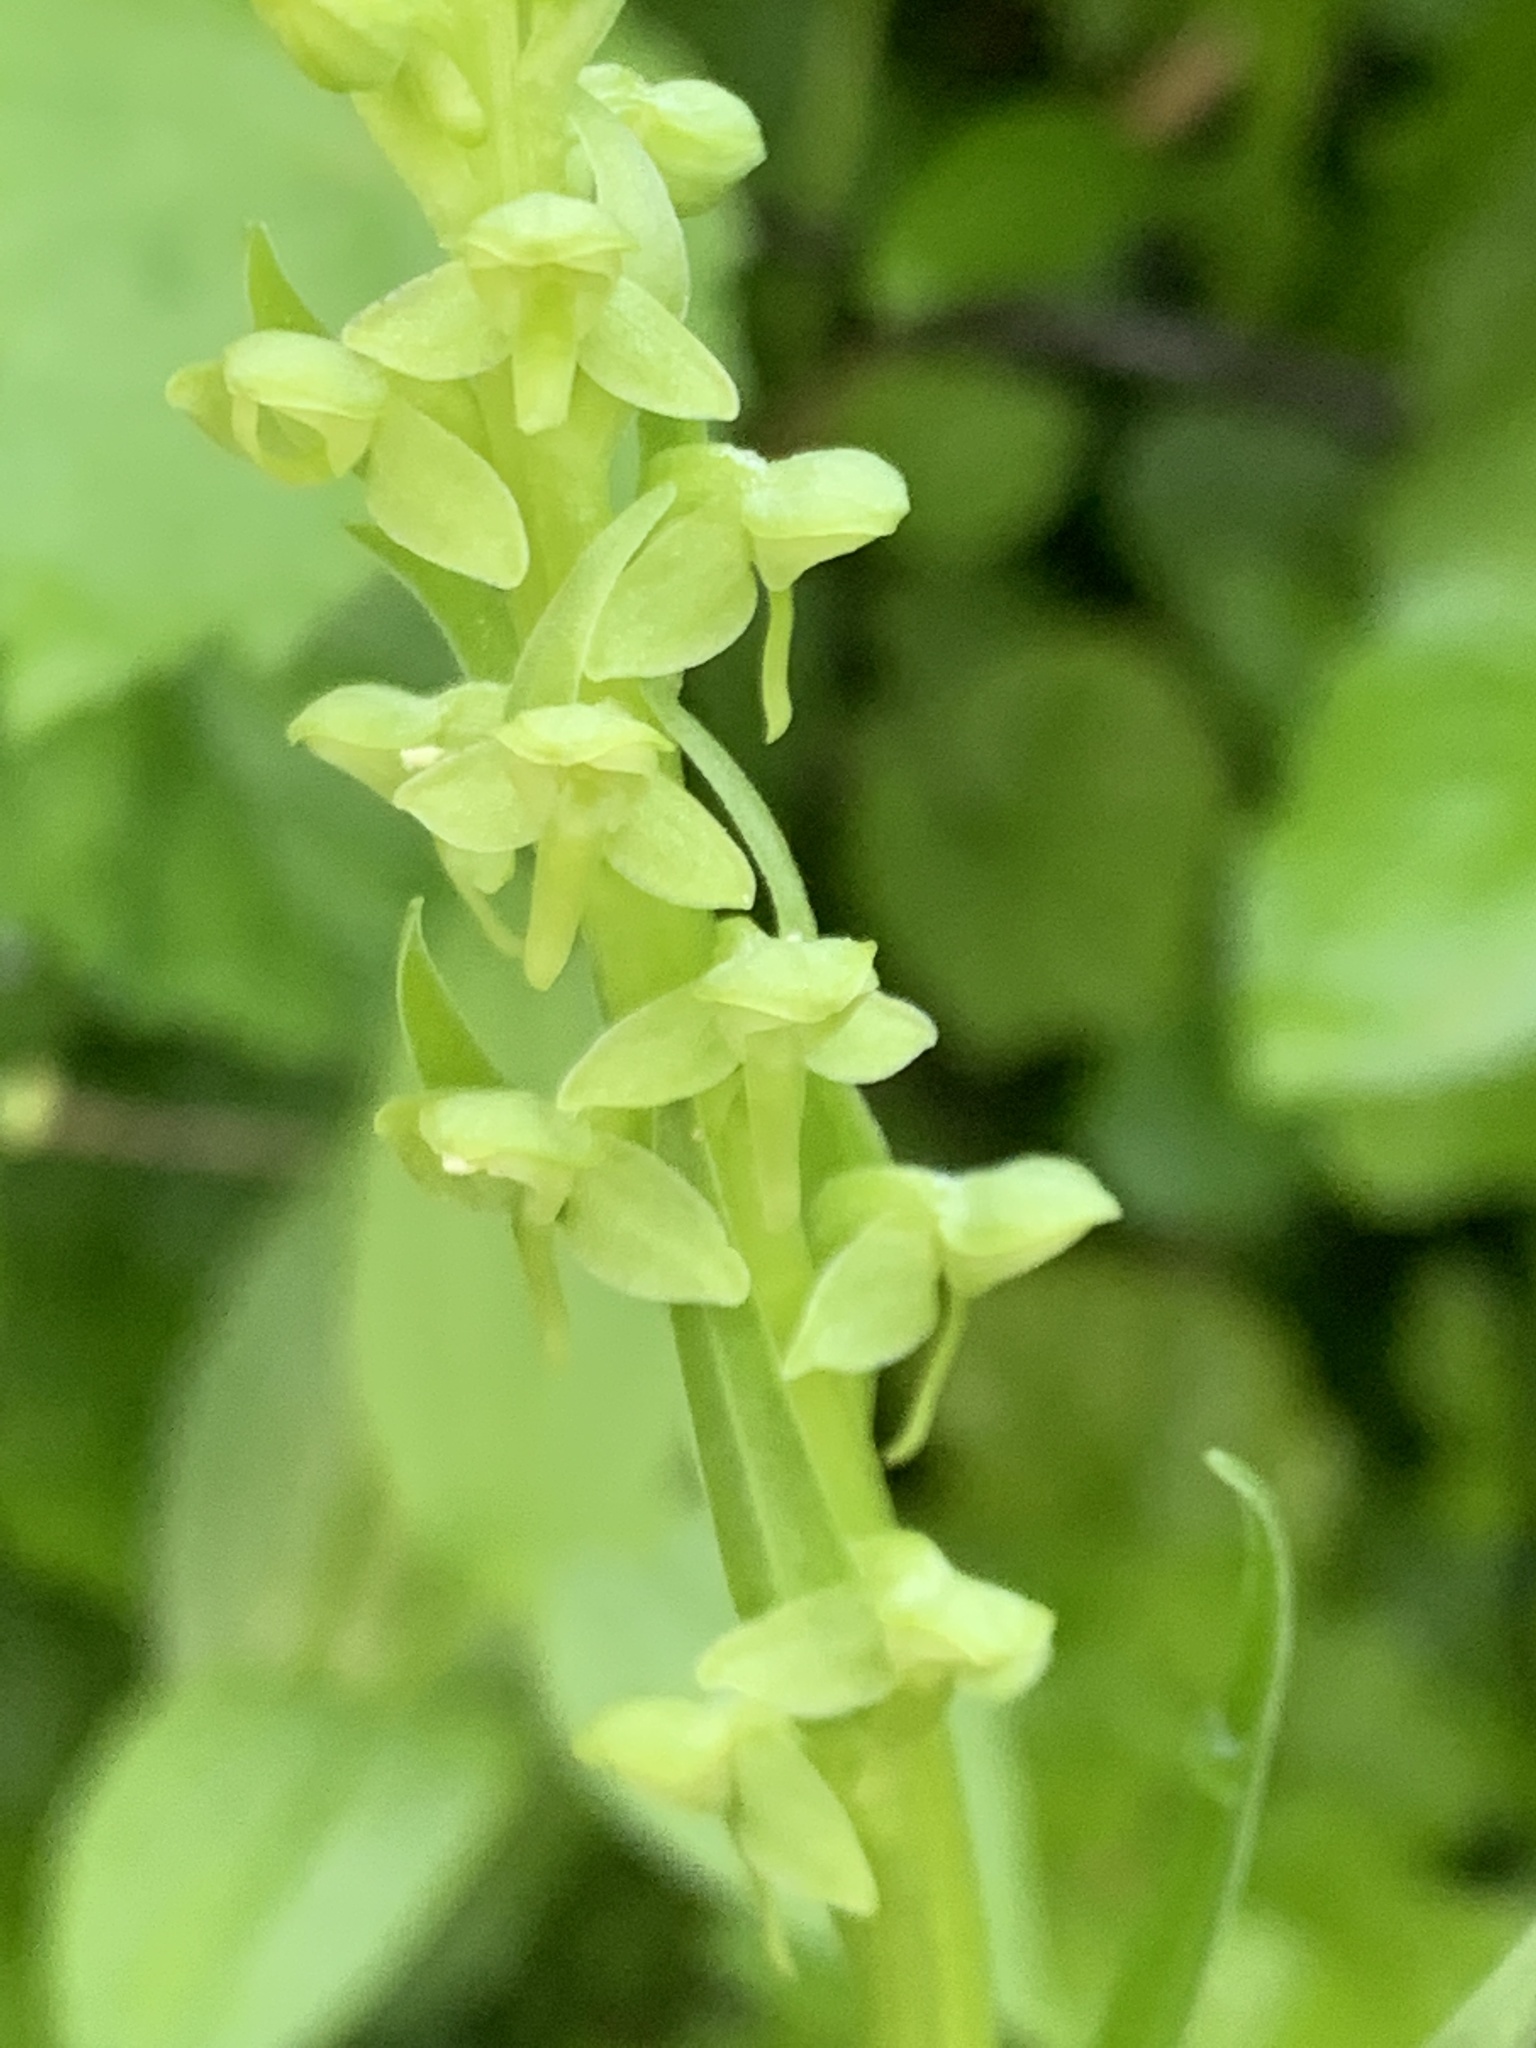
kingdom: Plantae
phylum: Tracheophyta
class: Liliopsida
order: Asparagales
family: Orchidaceae
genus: Platanthera
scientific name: Platanthera stricta
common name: Slender bog orchid
